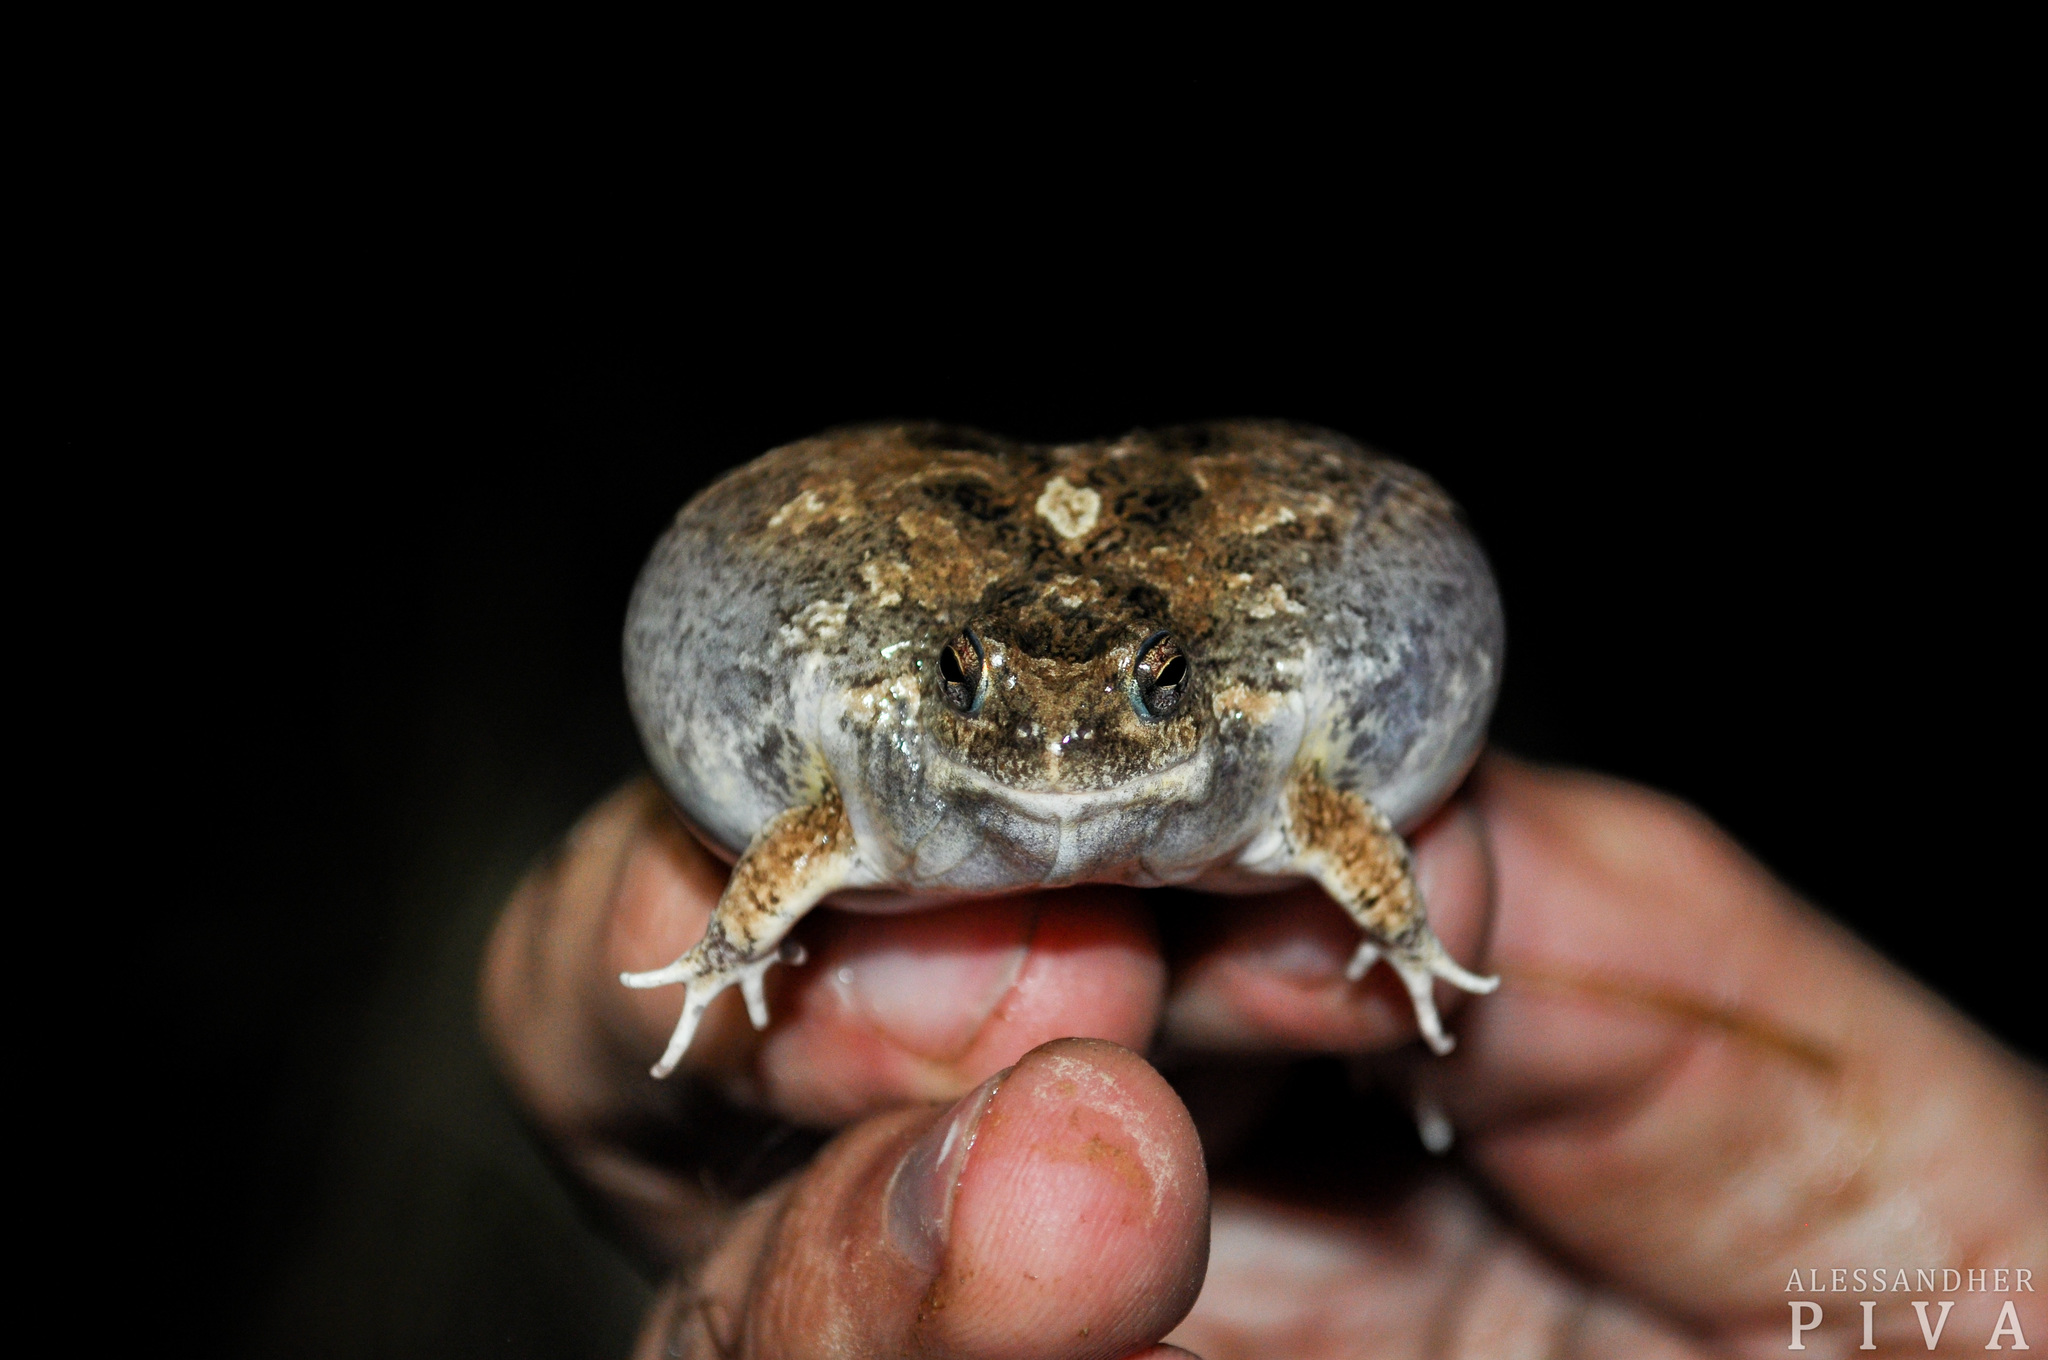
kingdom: Animalia
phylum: Chordata
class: Amphibia
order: Anura
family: Leptodactylidae
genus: Physalaemus
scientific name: Physalaemus biligonigerus
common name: Weeping frog
